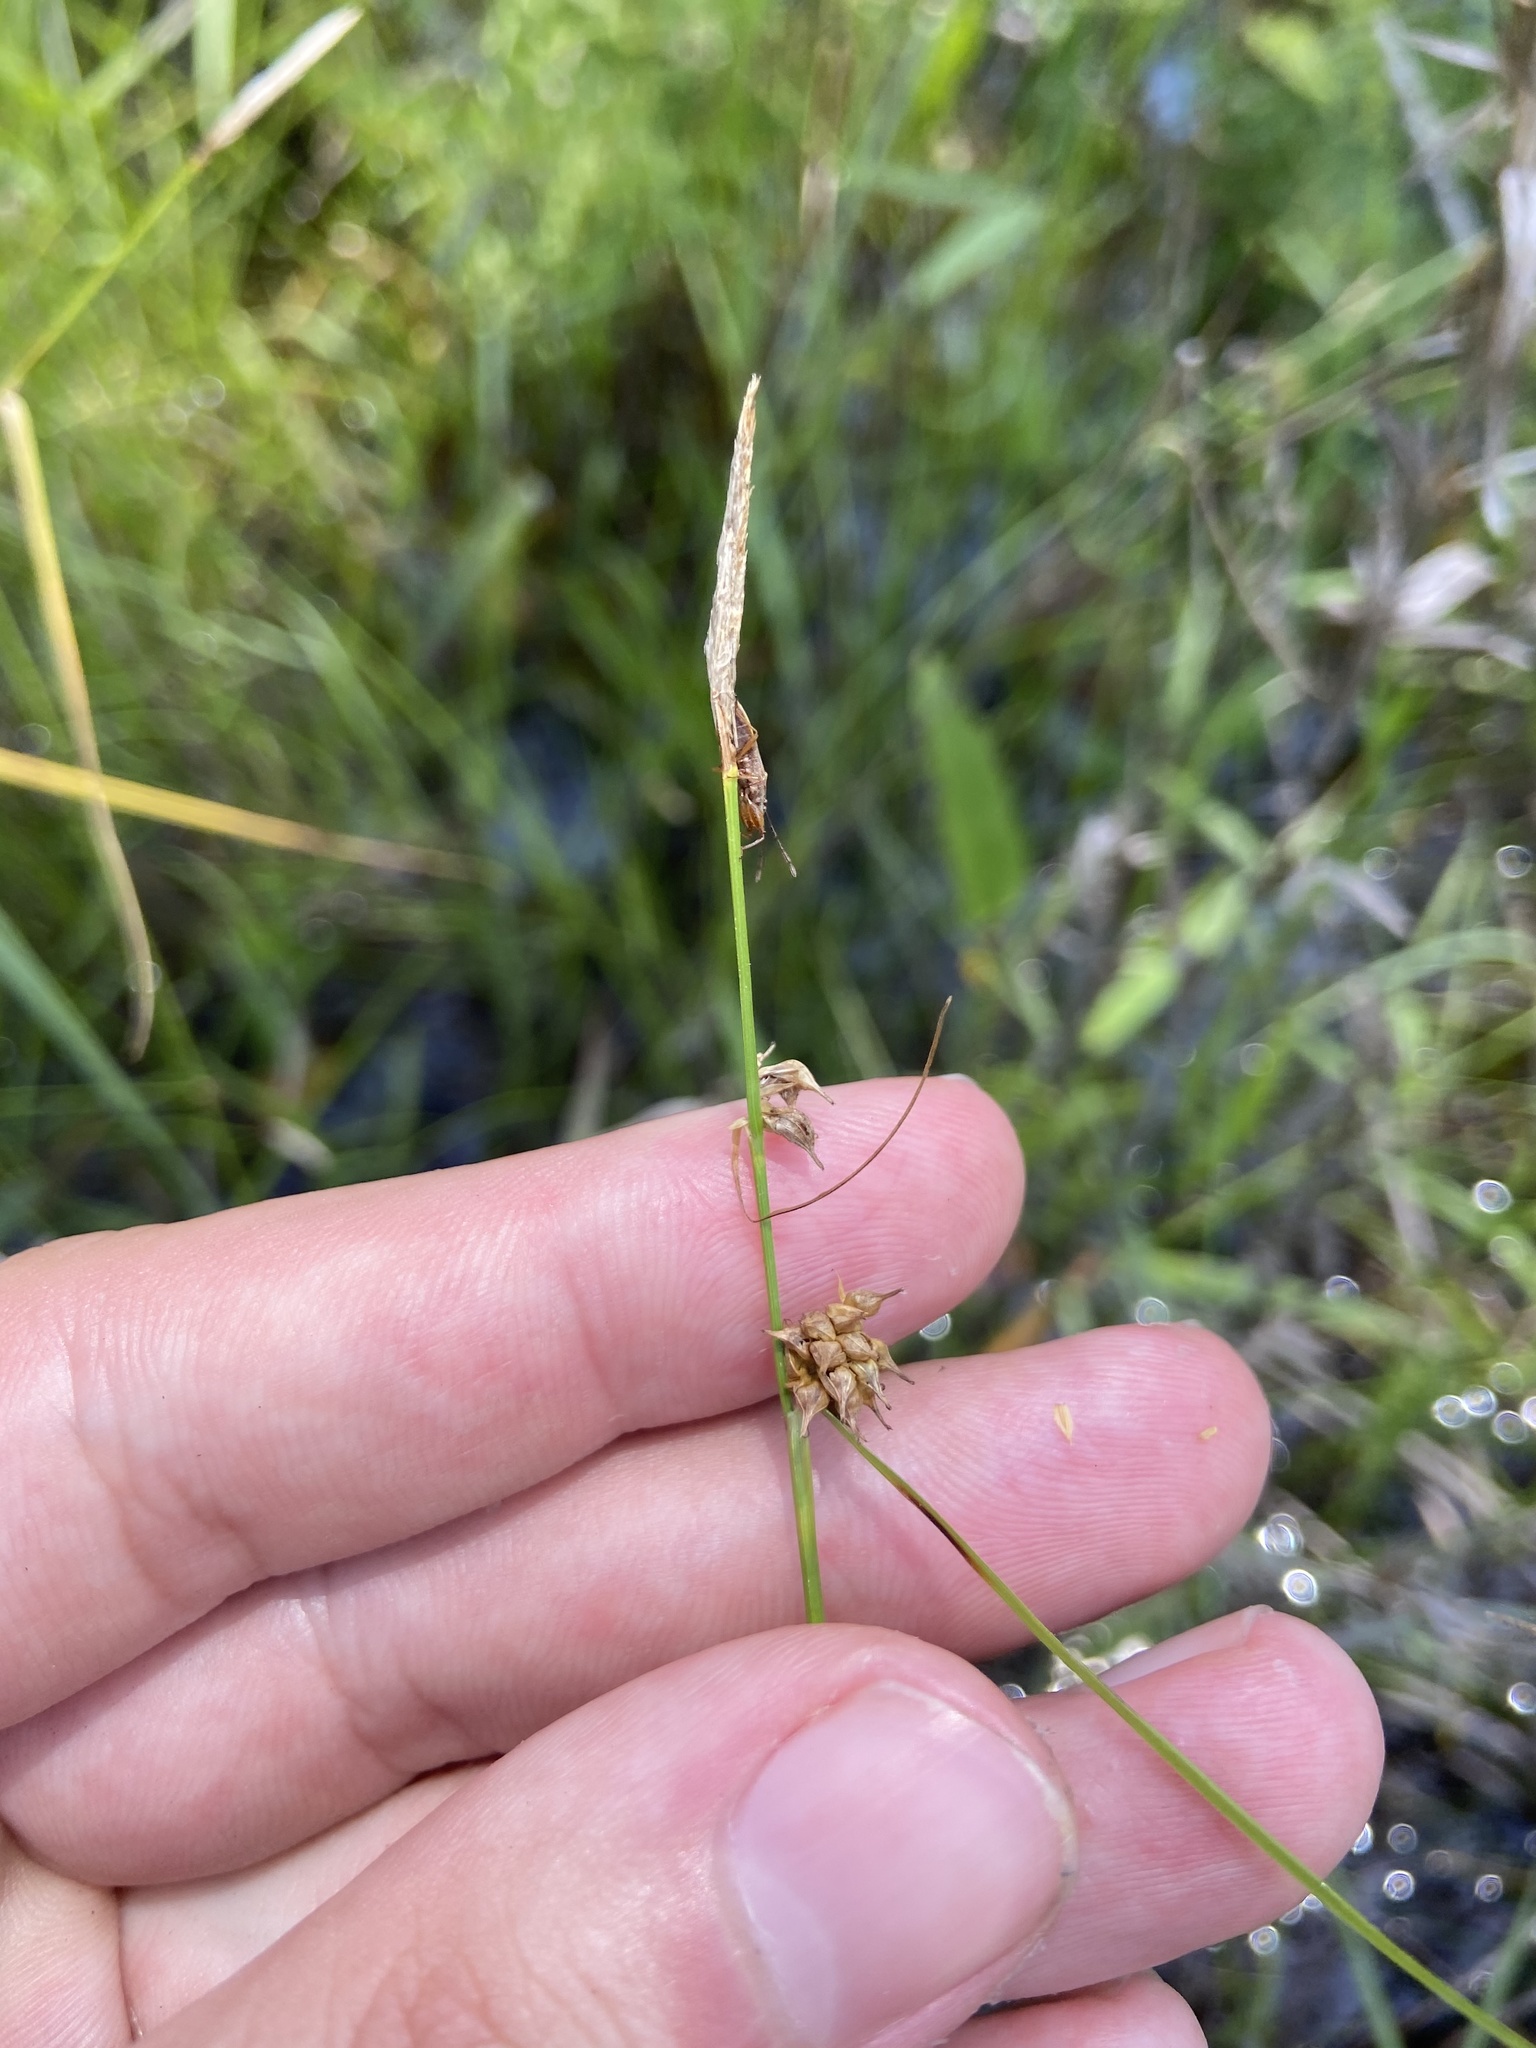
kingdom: Plantae
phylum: Tracheophyta
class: Liliopsida
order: Poales
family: Cyperaceae
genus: Carex
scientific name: Carex lutea
